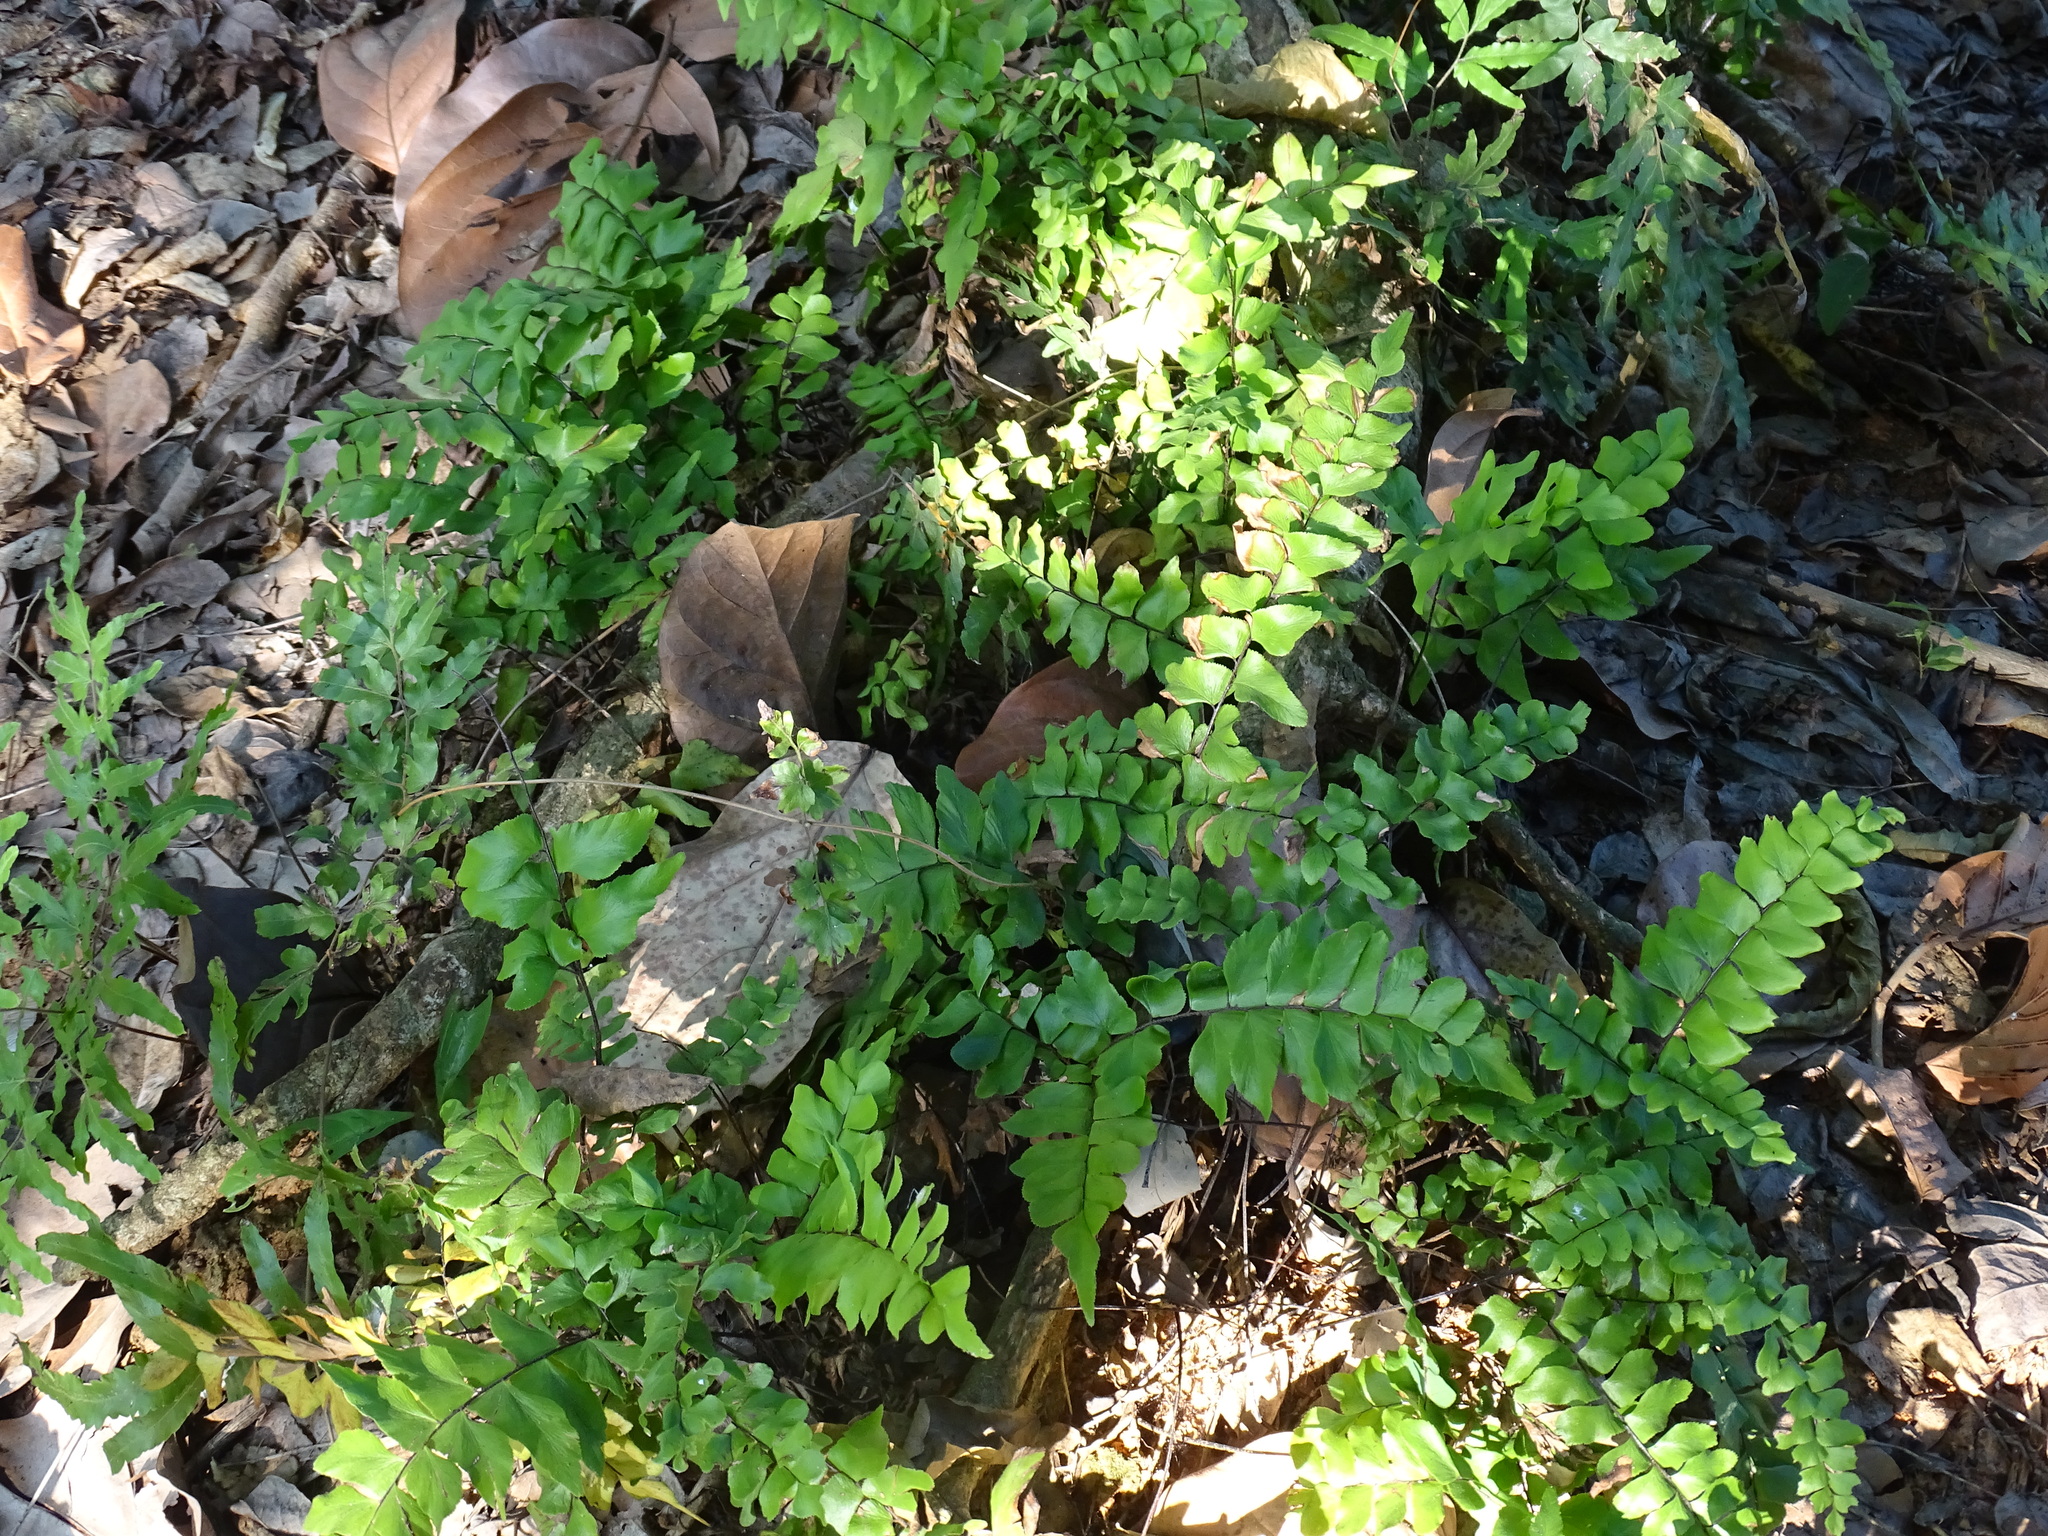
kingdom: Plantae
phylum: Tracheophyta
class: Polypodiopsida
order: Polypodiales
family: Pteridaceae
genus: Adiantum
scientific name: Adiantum mcvaughii
